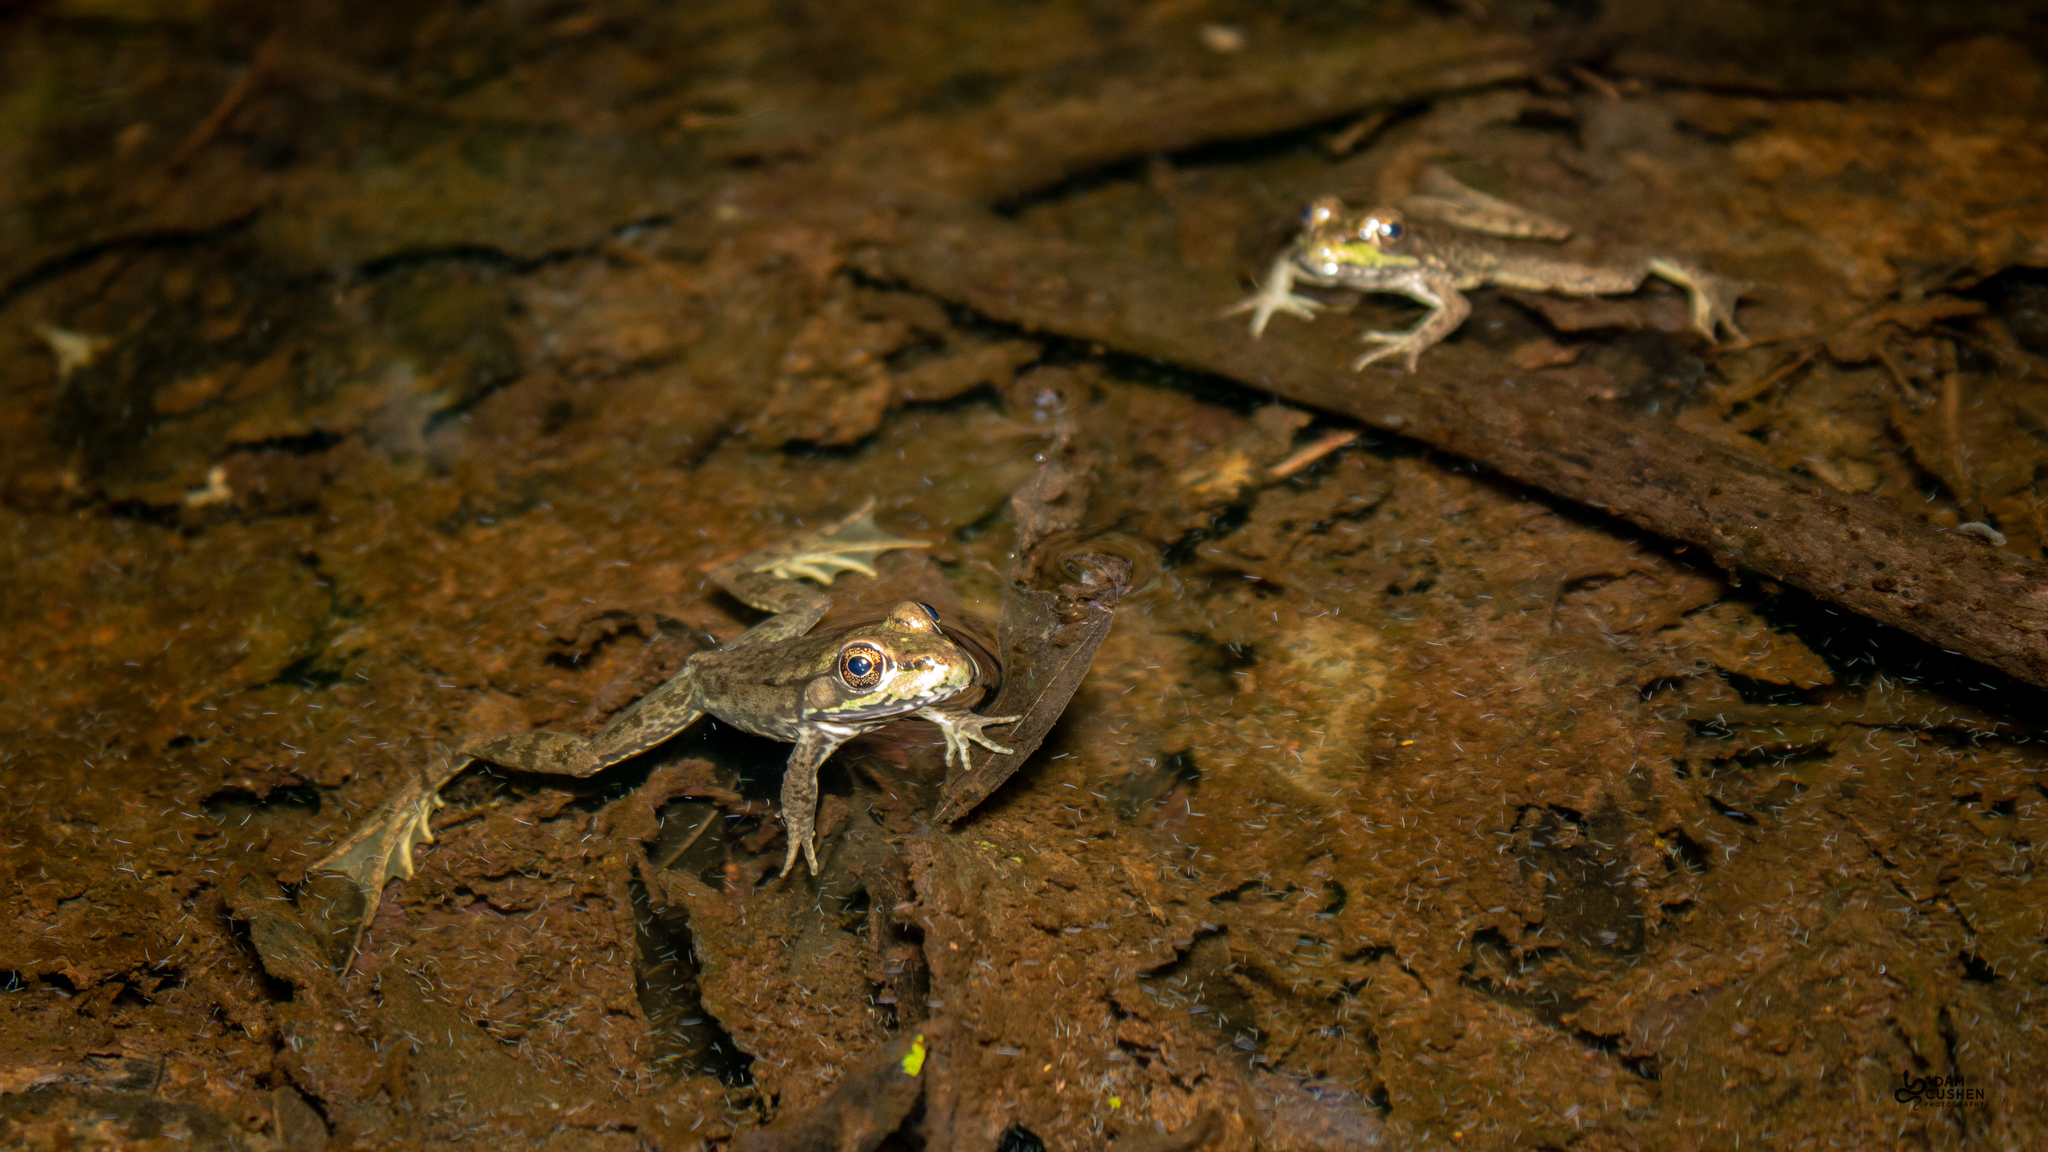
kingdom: Animalia
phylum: Chordata
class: Amphibia
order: Anura
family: Ranidae
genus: Lithobates
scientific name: Lithobates clamitans
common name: Green frog
